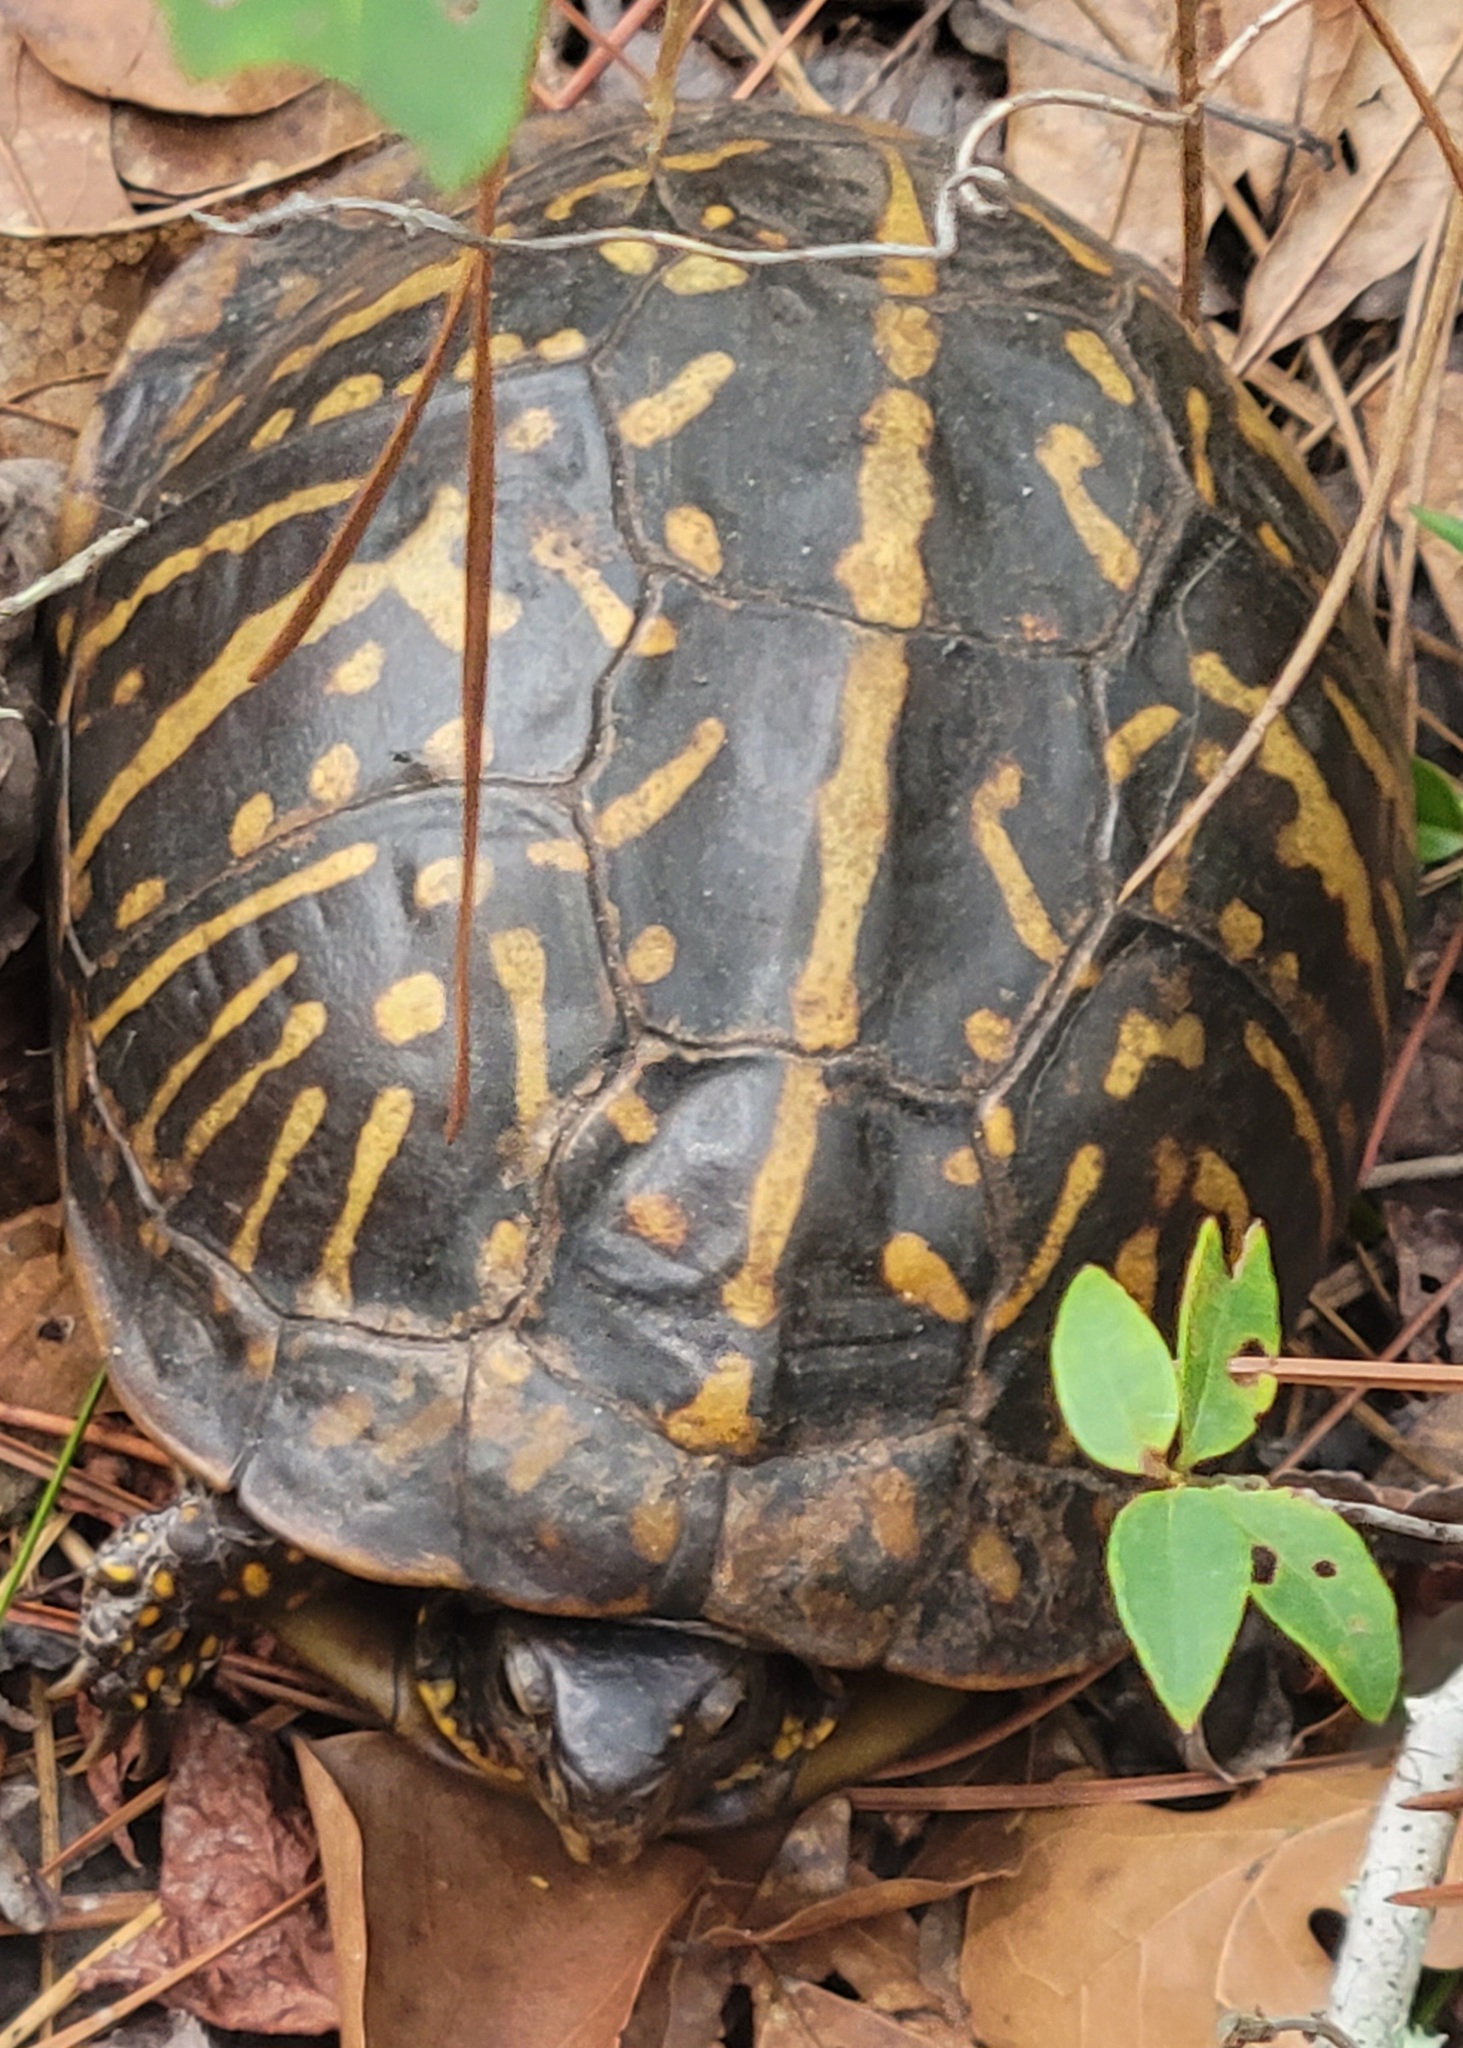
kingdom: Animalia
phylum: Chordata
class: Testudines
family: Emydidae
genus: Terrapene
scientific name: Terrapene carolina
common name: Common box turtle
